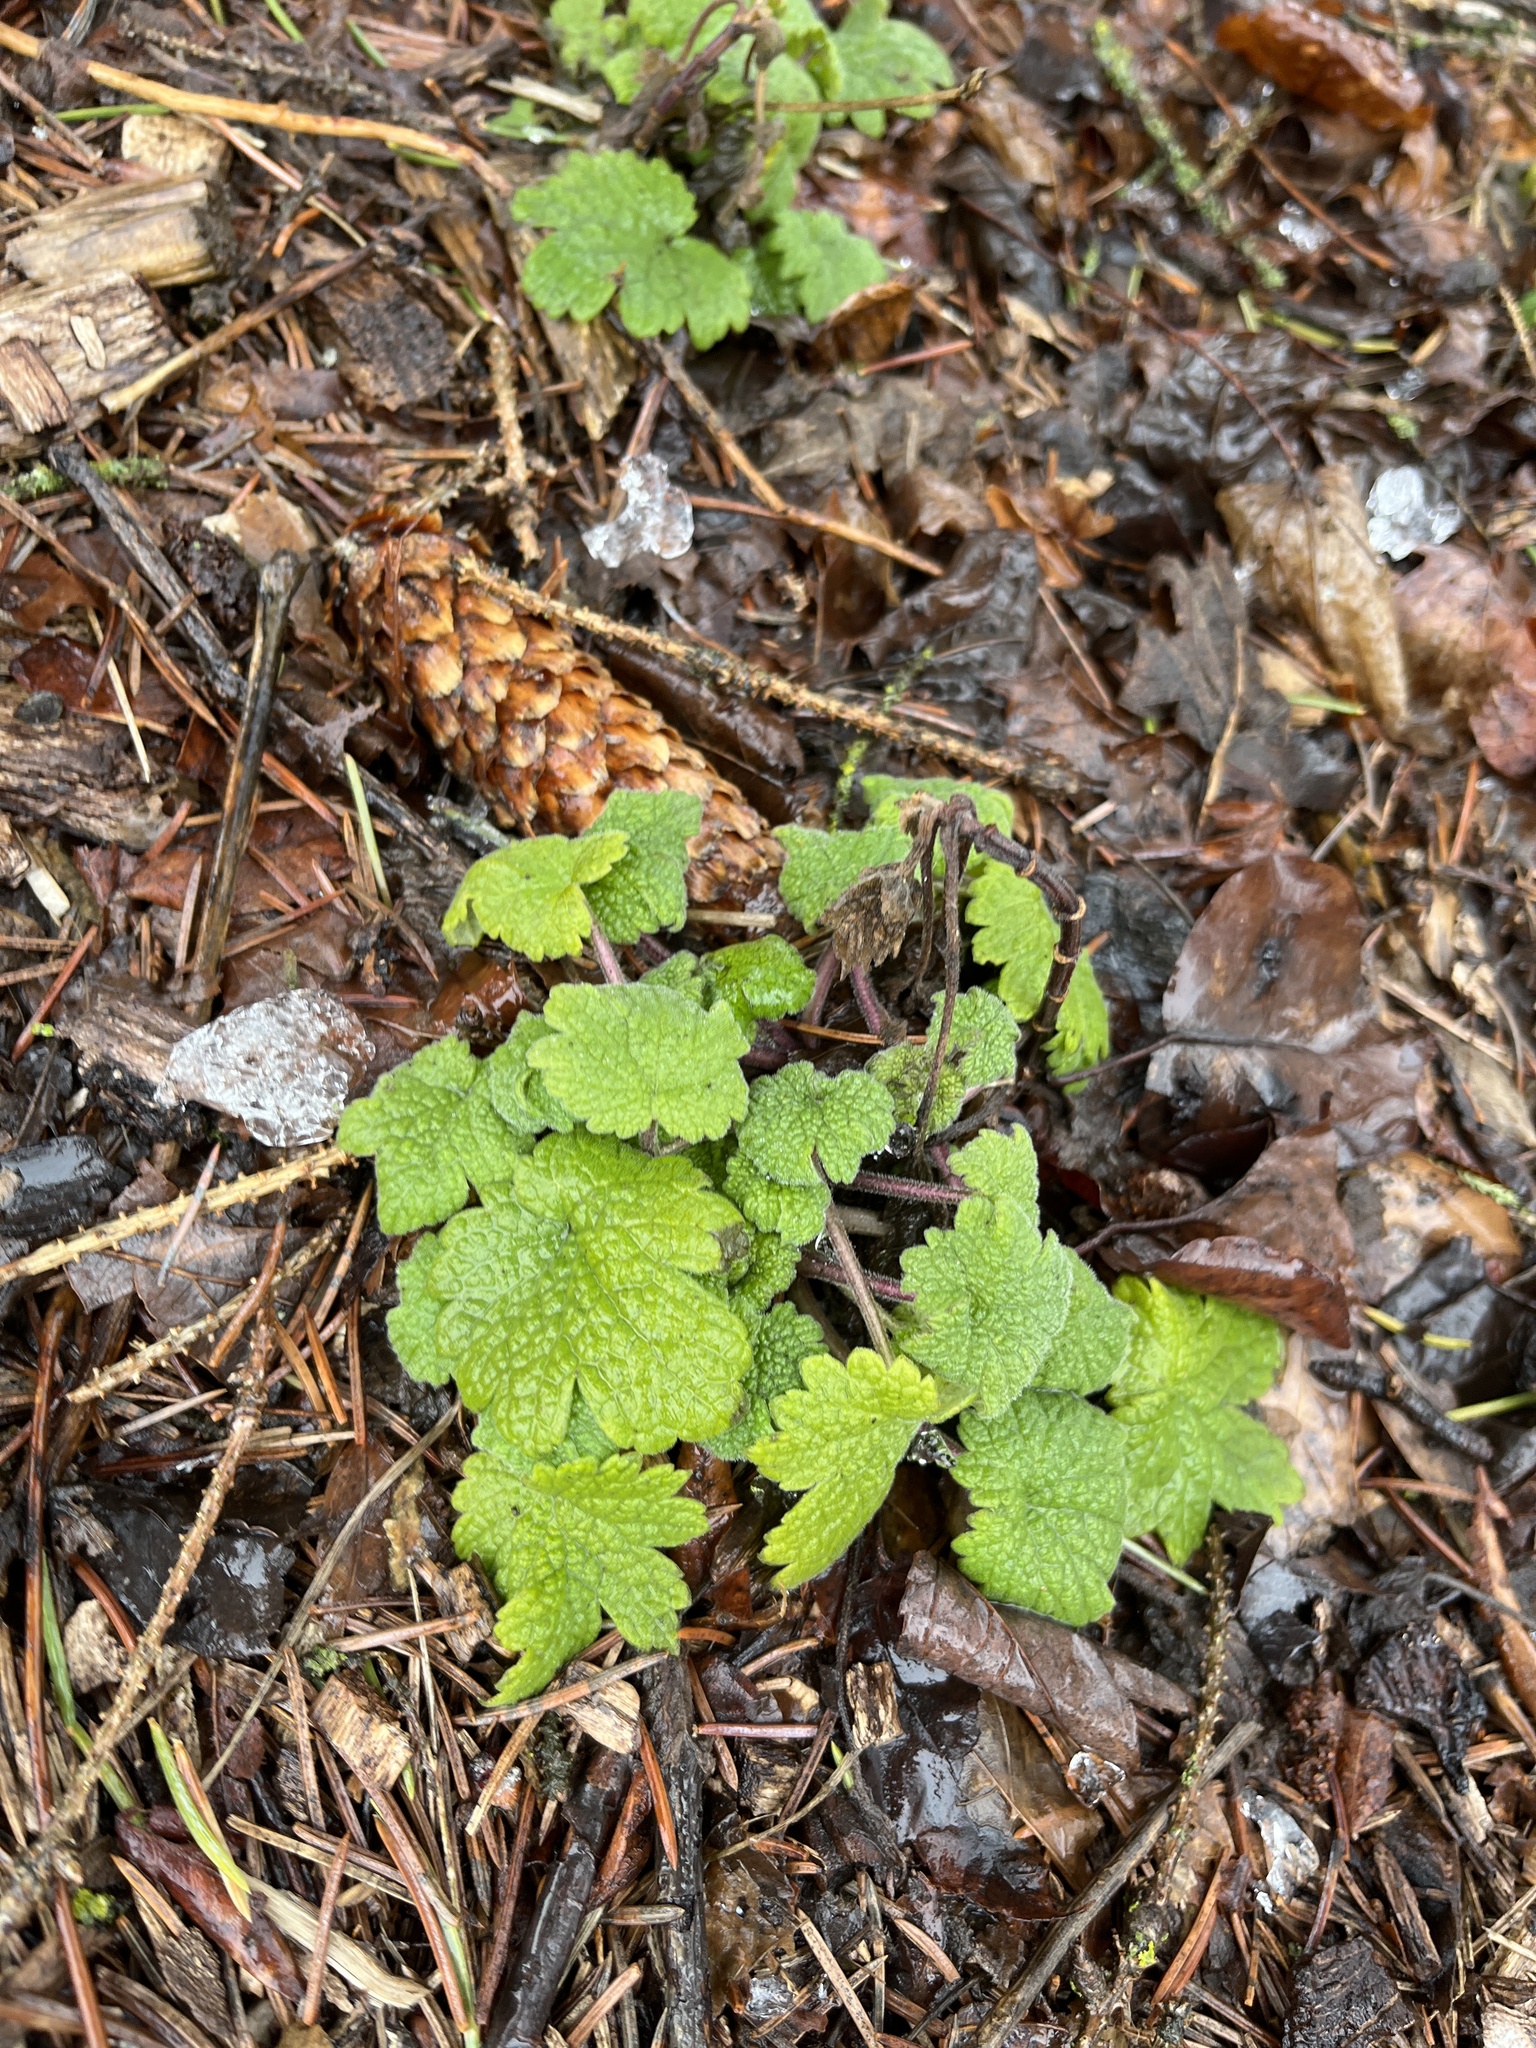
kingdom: Plantae
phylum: Tracheophyta
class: Magnoliopsida
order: Lamiales
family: Lamiaceae
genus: Leonurus
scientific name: Leonurus cardiaca
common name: Motherwort
